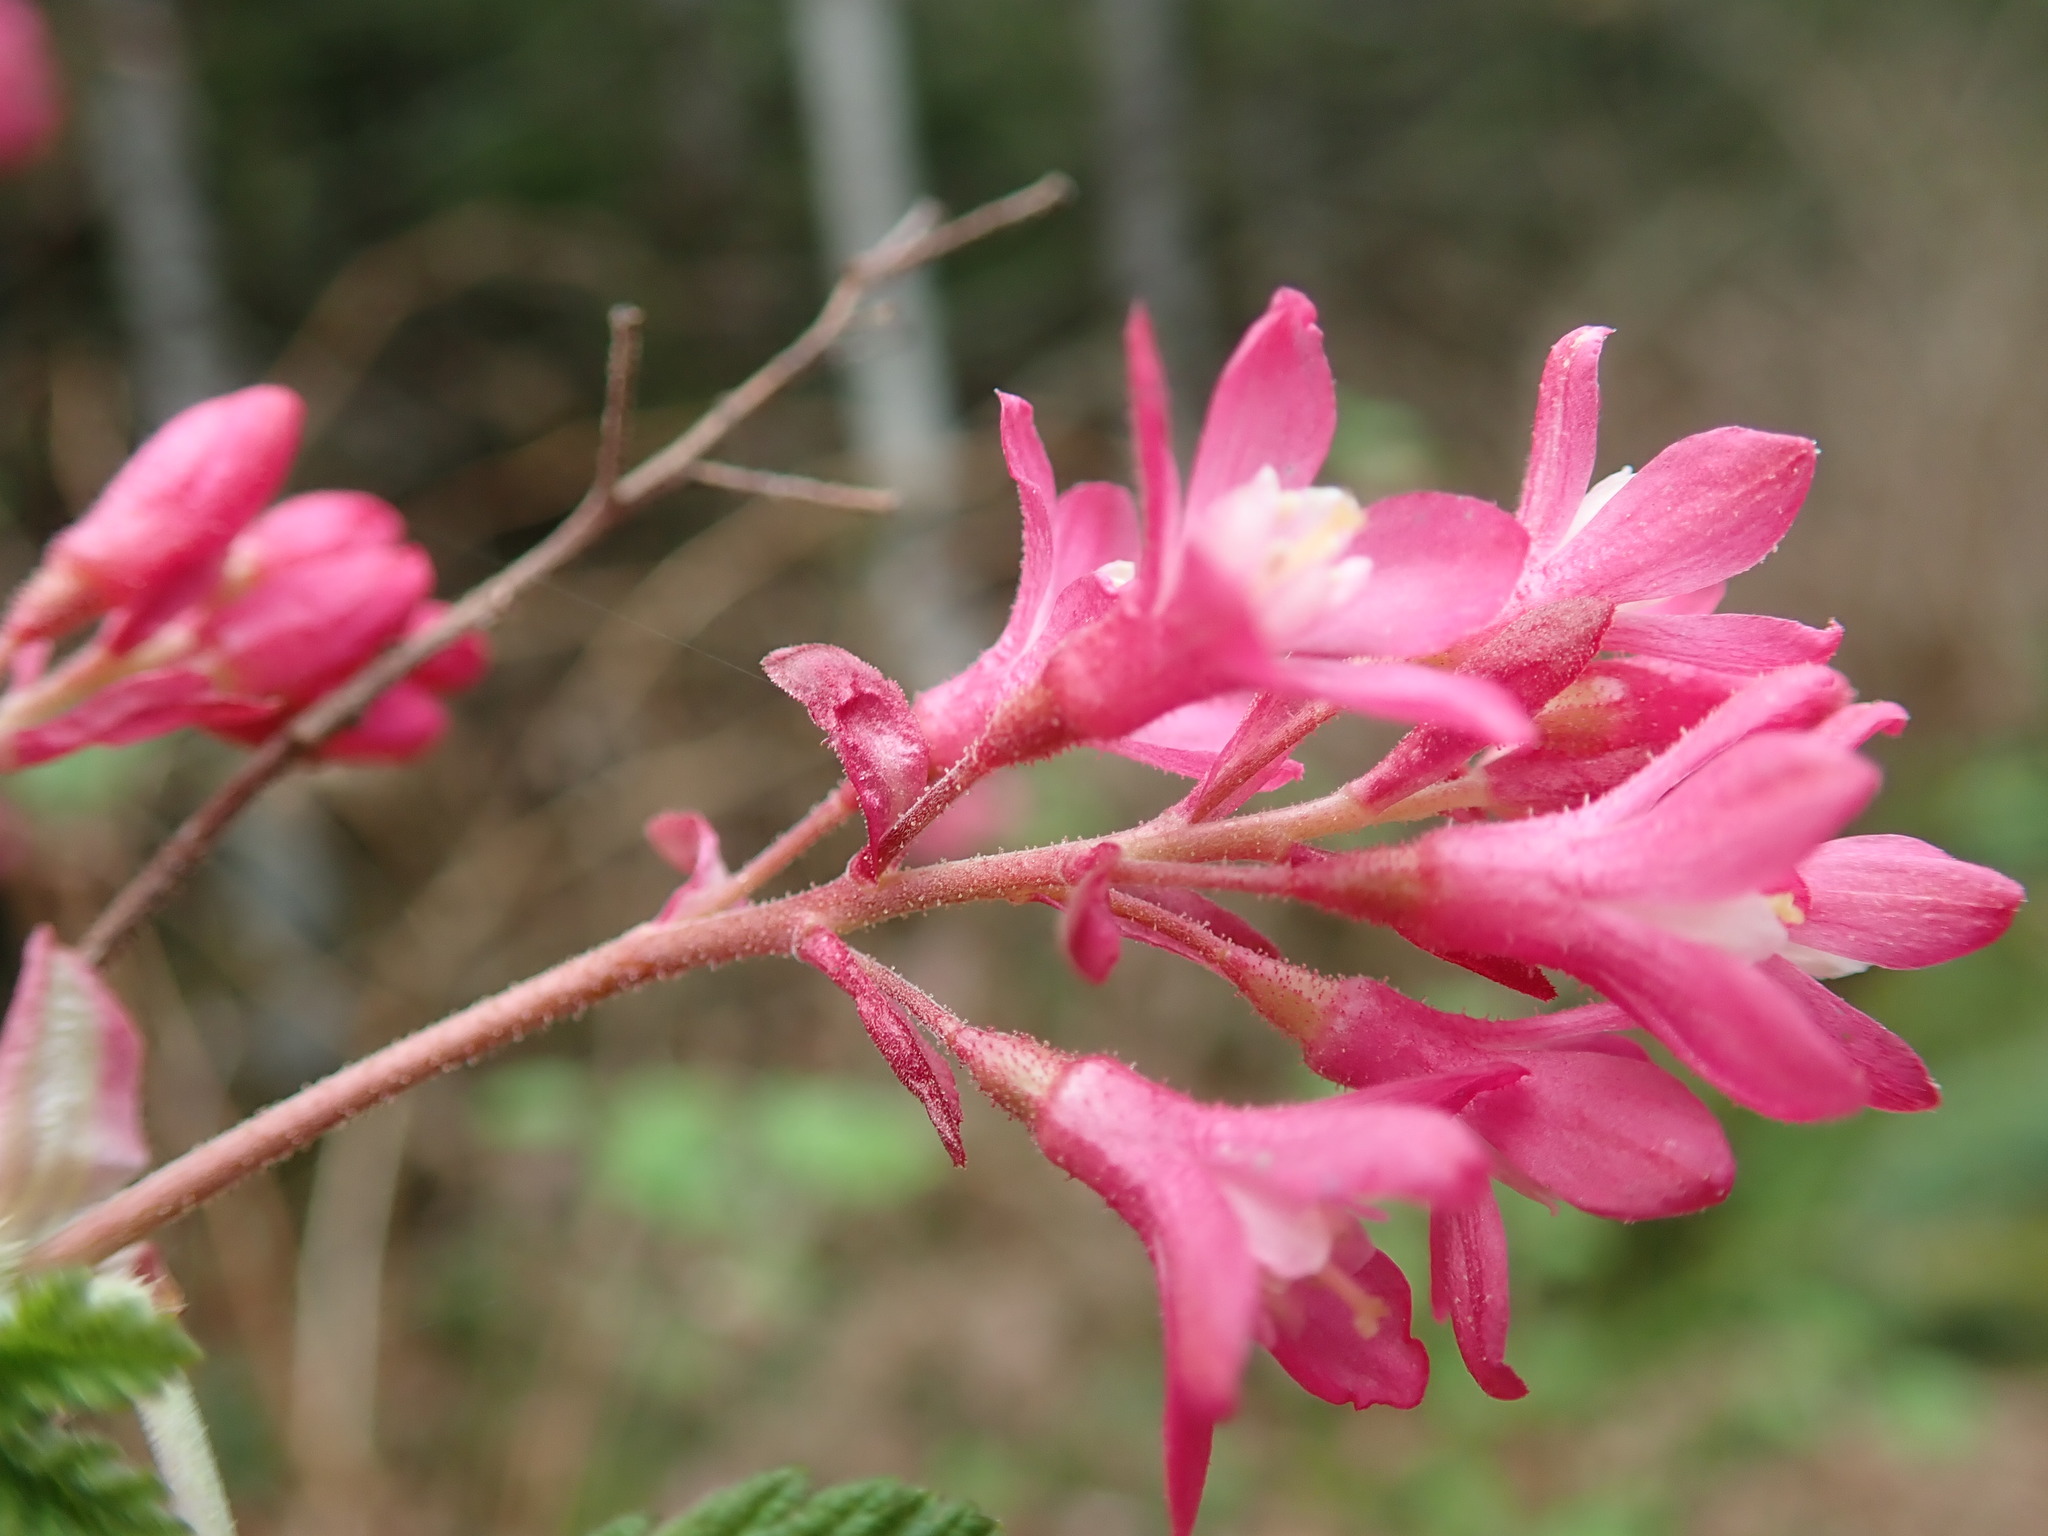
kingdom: Plantae
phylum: Tracheophyta
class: Magnoliopsida
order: Saxifragales
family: Grossulariaceae
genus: Ribes
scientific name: Ribes sanguineum
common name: Flowering currant
